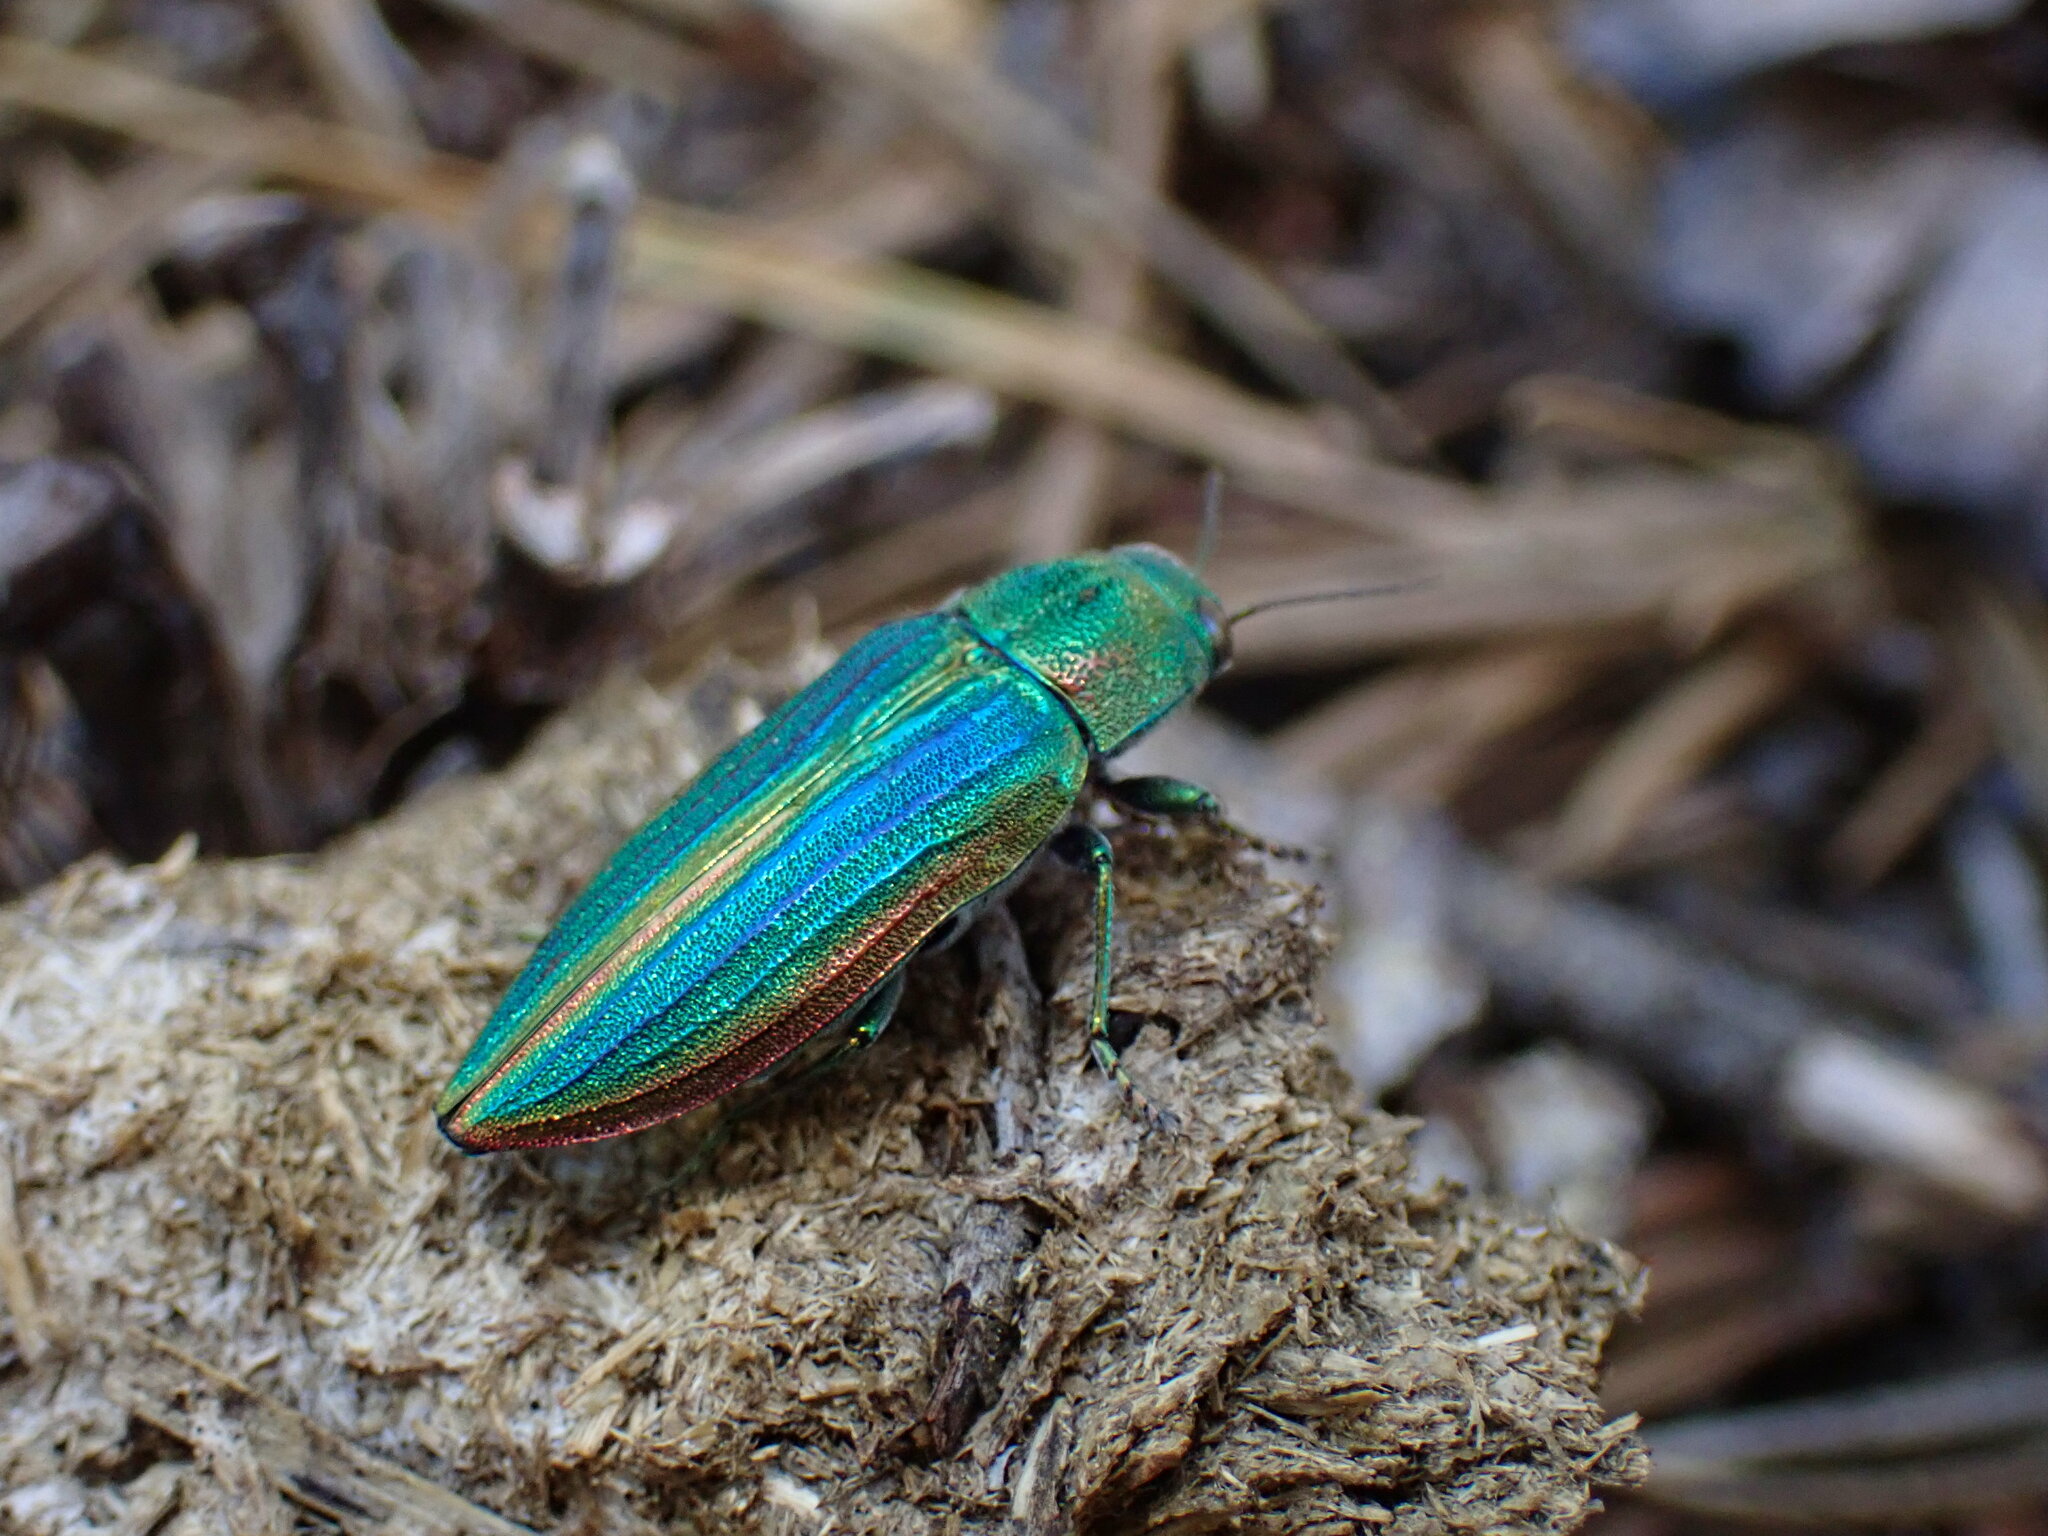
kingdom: Animalia
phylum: Arthropoda
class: Insecta
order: Coleoptera
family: Buprestidae
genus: Buprestis
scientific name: Buprestis aurulenta
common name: Golden buprestid
